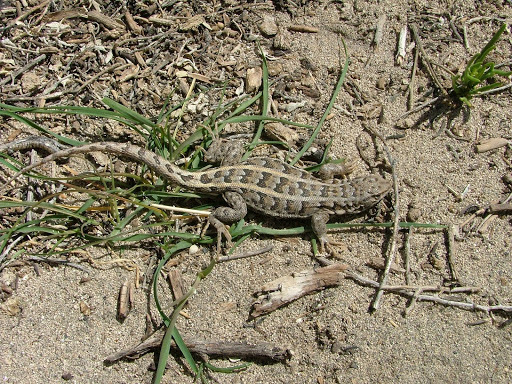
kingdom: Animalia
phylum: Chordata
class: Squamata
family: Liolaemidae
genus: Liolaemus
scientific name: Liolaemus josei
